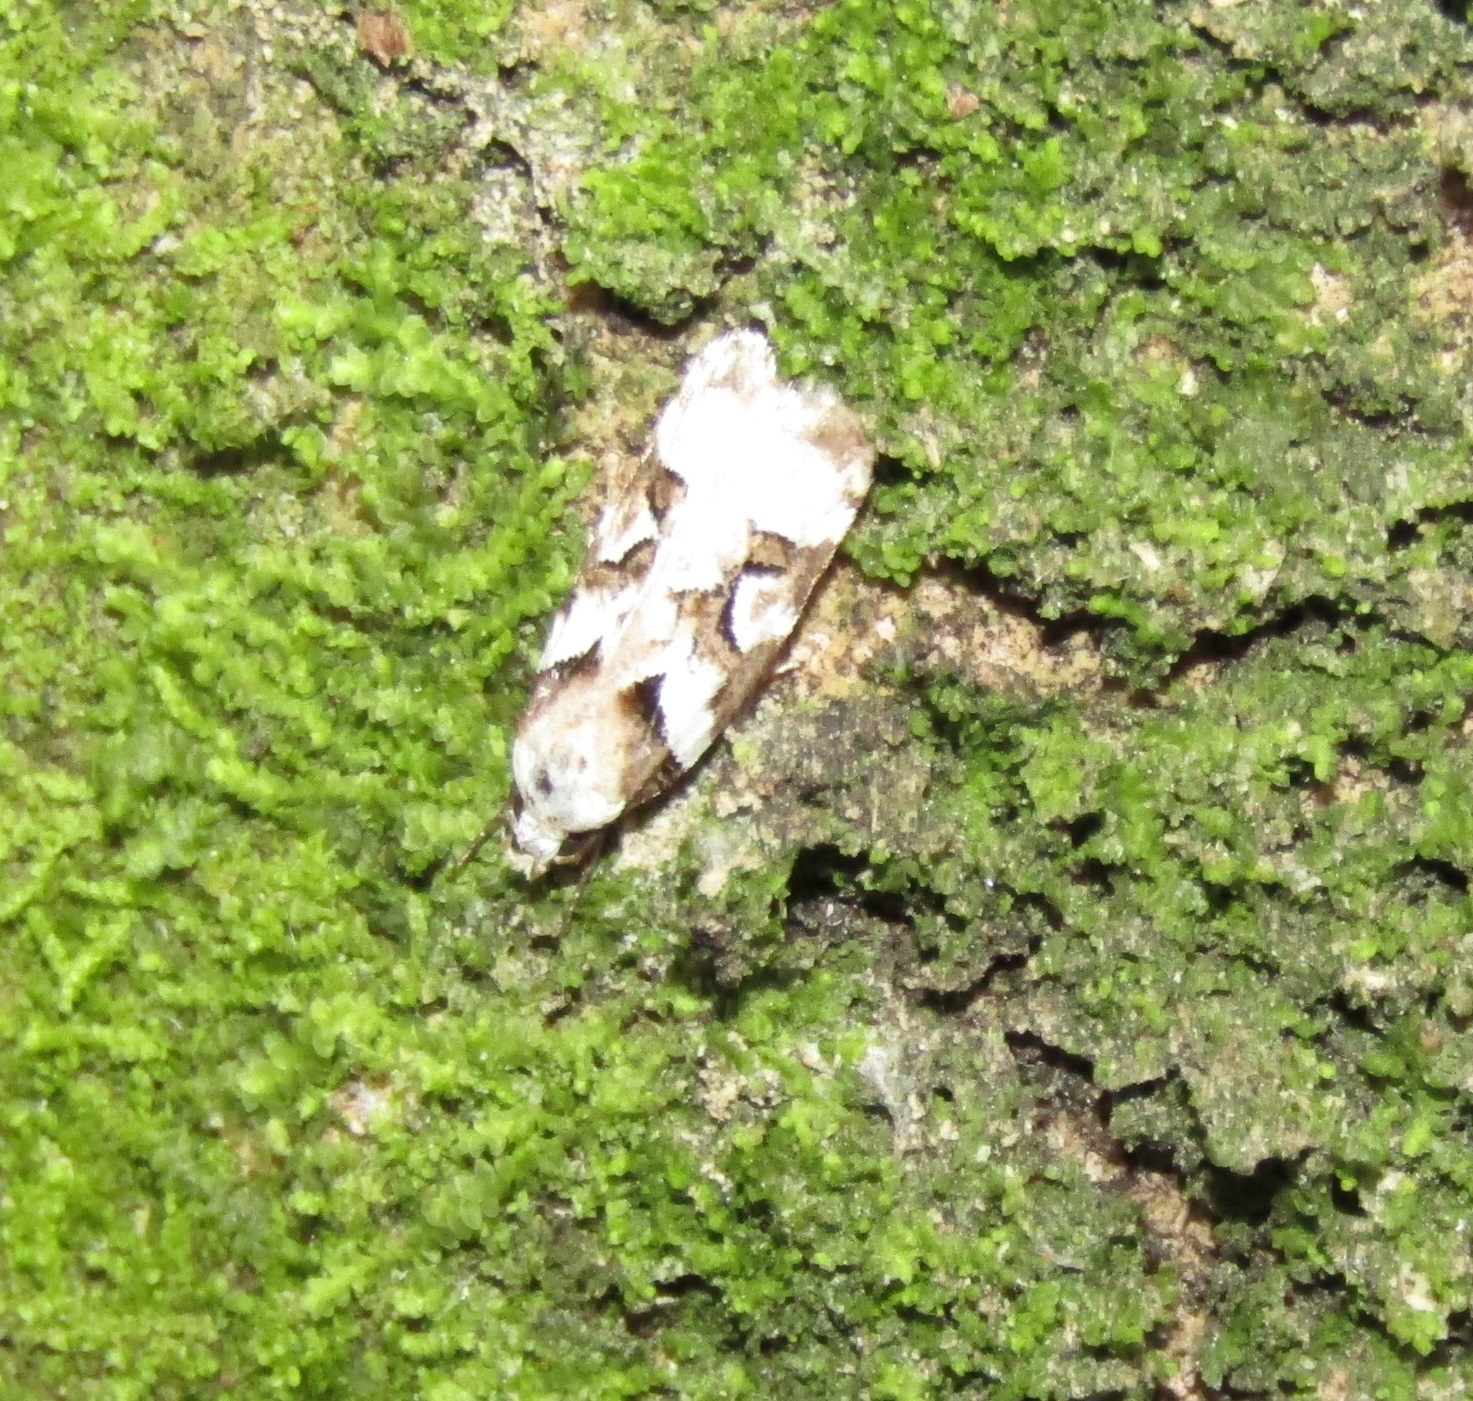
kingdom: Animalia
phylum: Arthropoda
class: Insecta
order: Lepidoptera
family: Oecophoridae
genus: Izatha
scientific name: Izatha epiphanes
